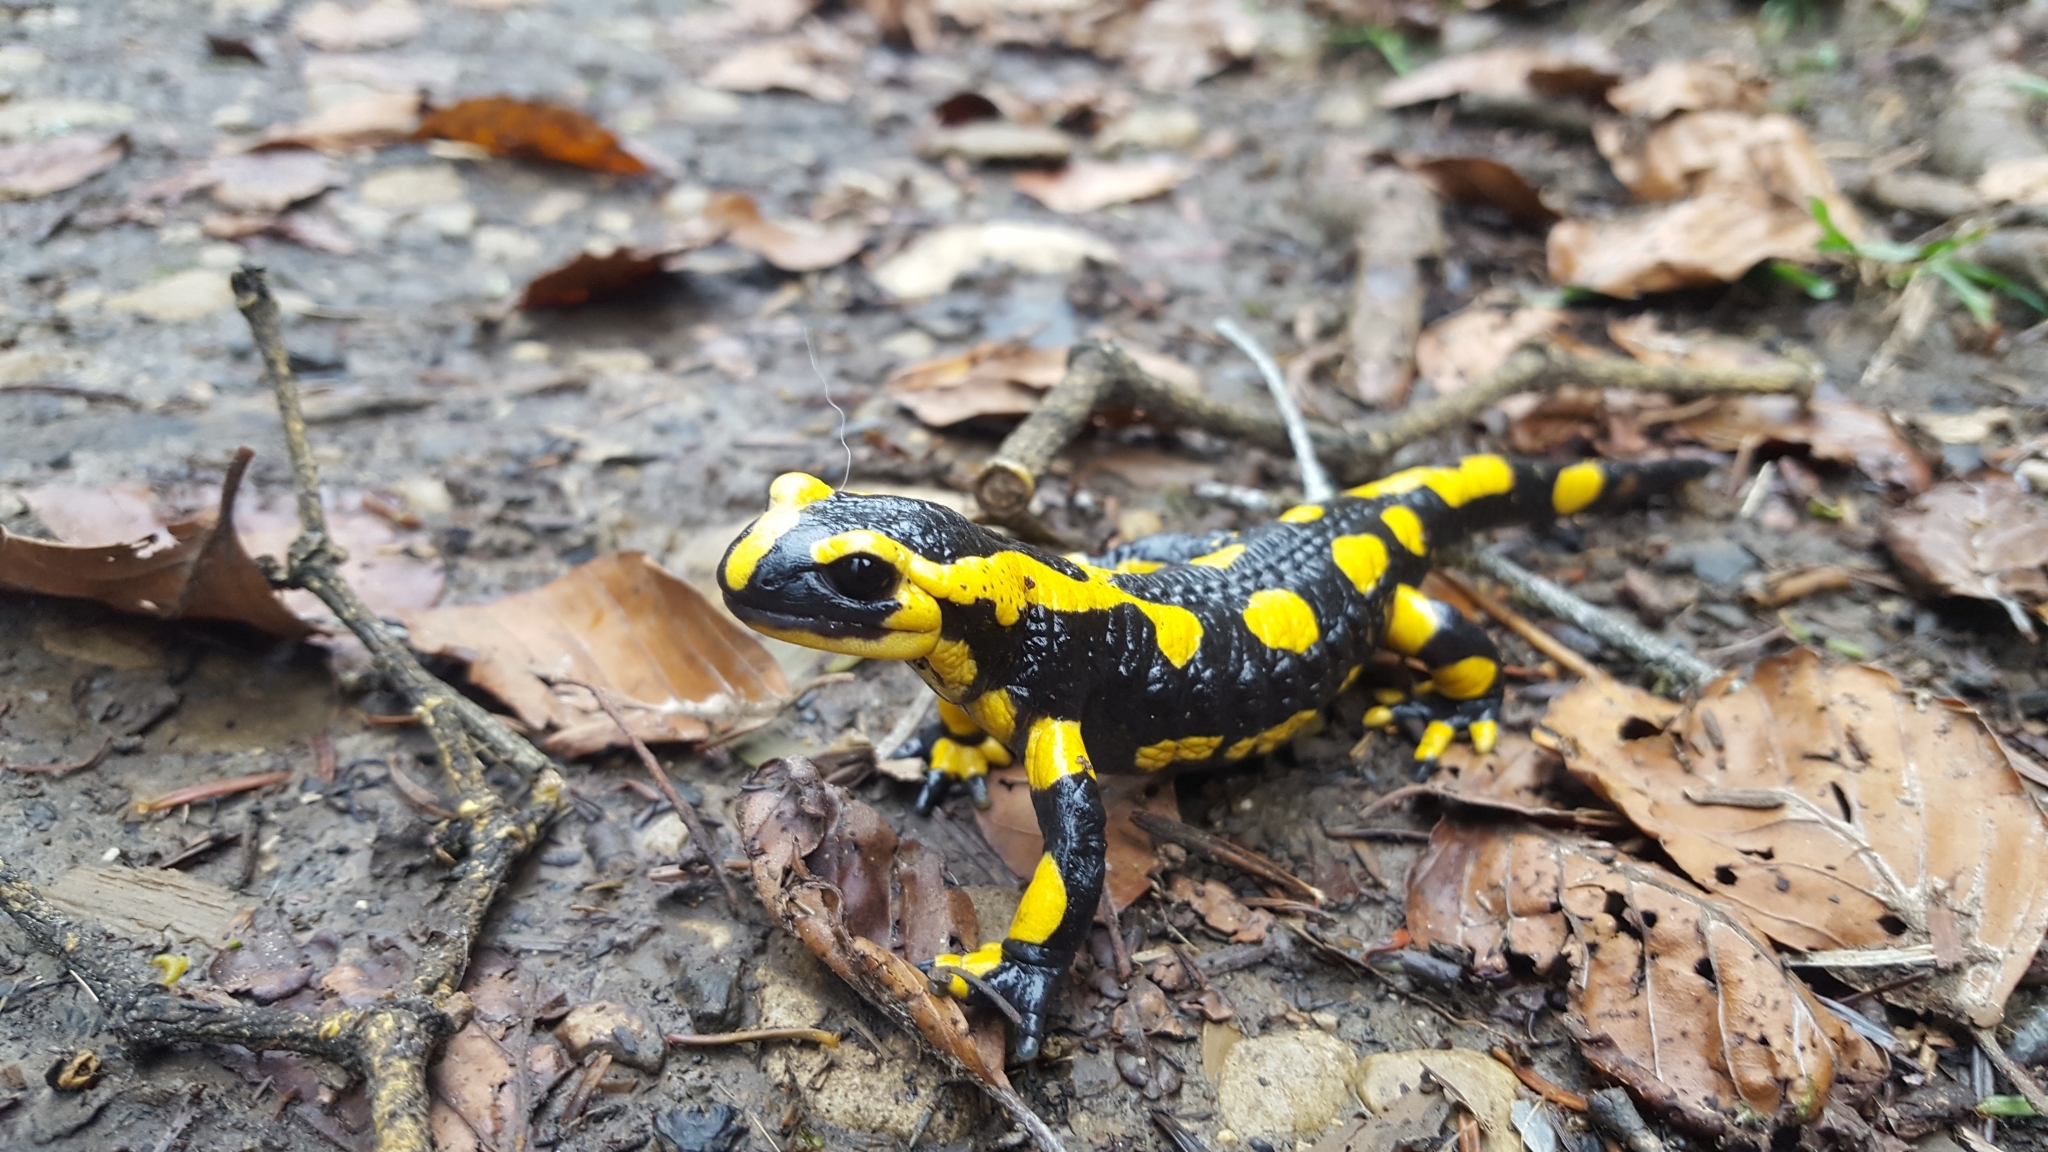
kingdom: Animalia
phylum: Chordata
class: Amphibia
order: Caudata
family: Salamandridae
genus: Salamandra
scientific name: Salamandra salamandra
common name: Fire salamander
